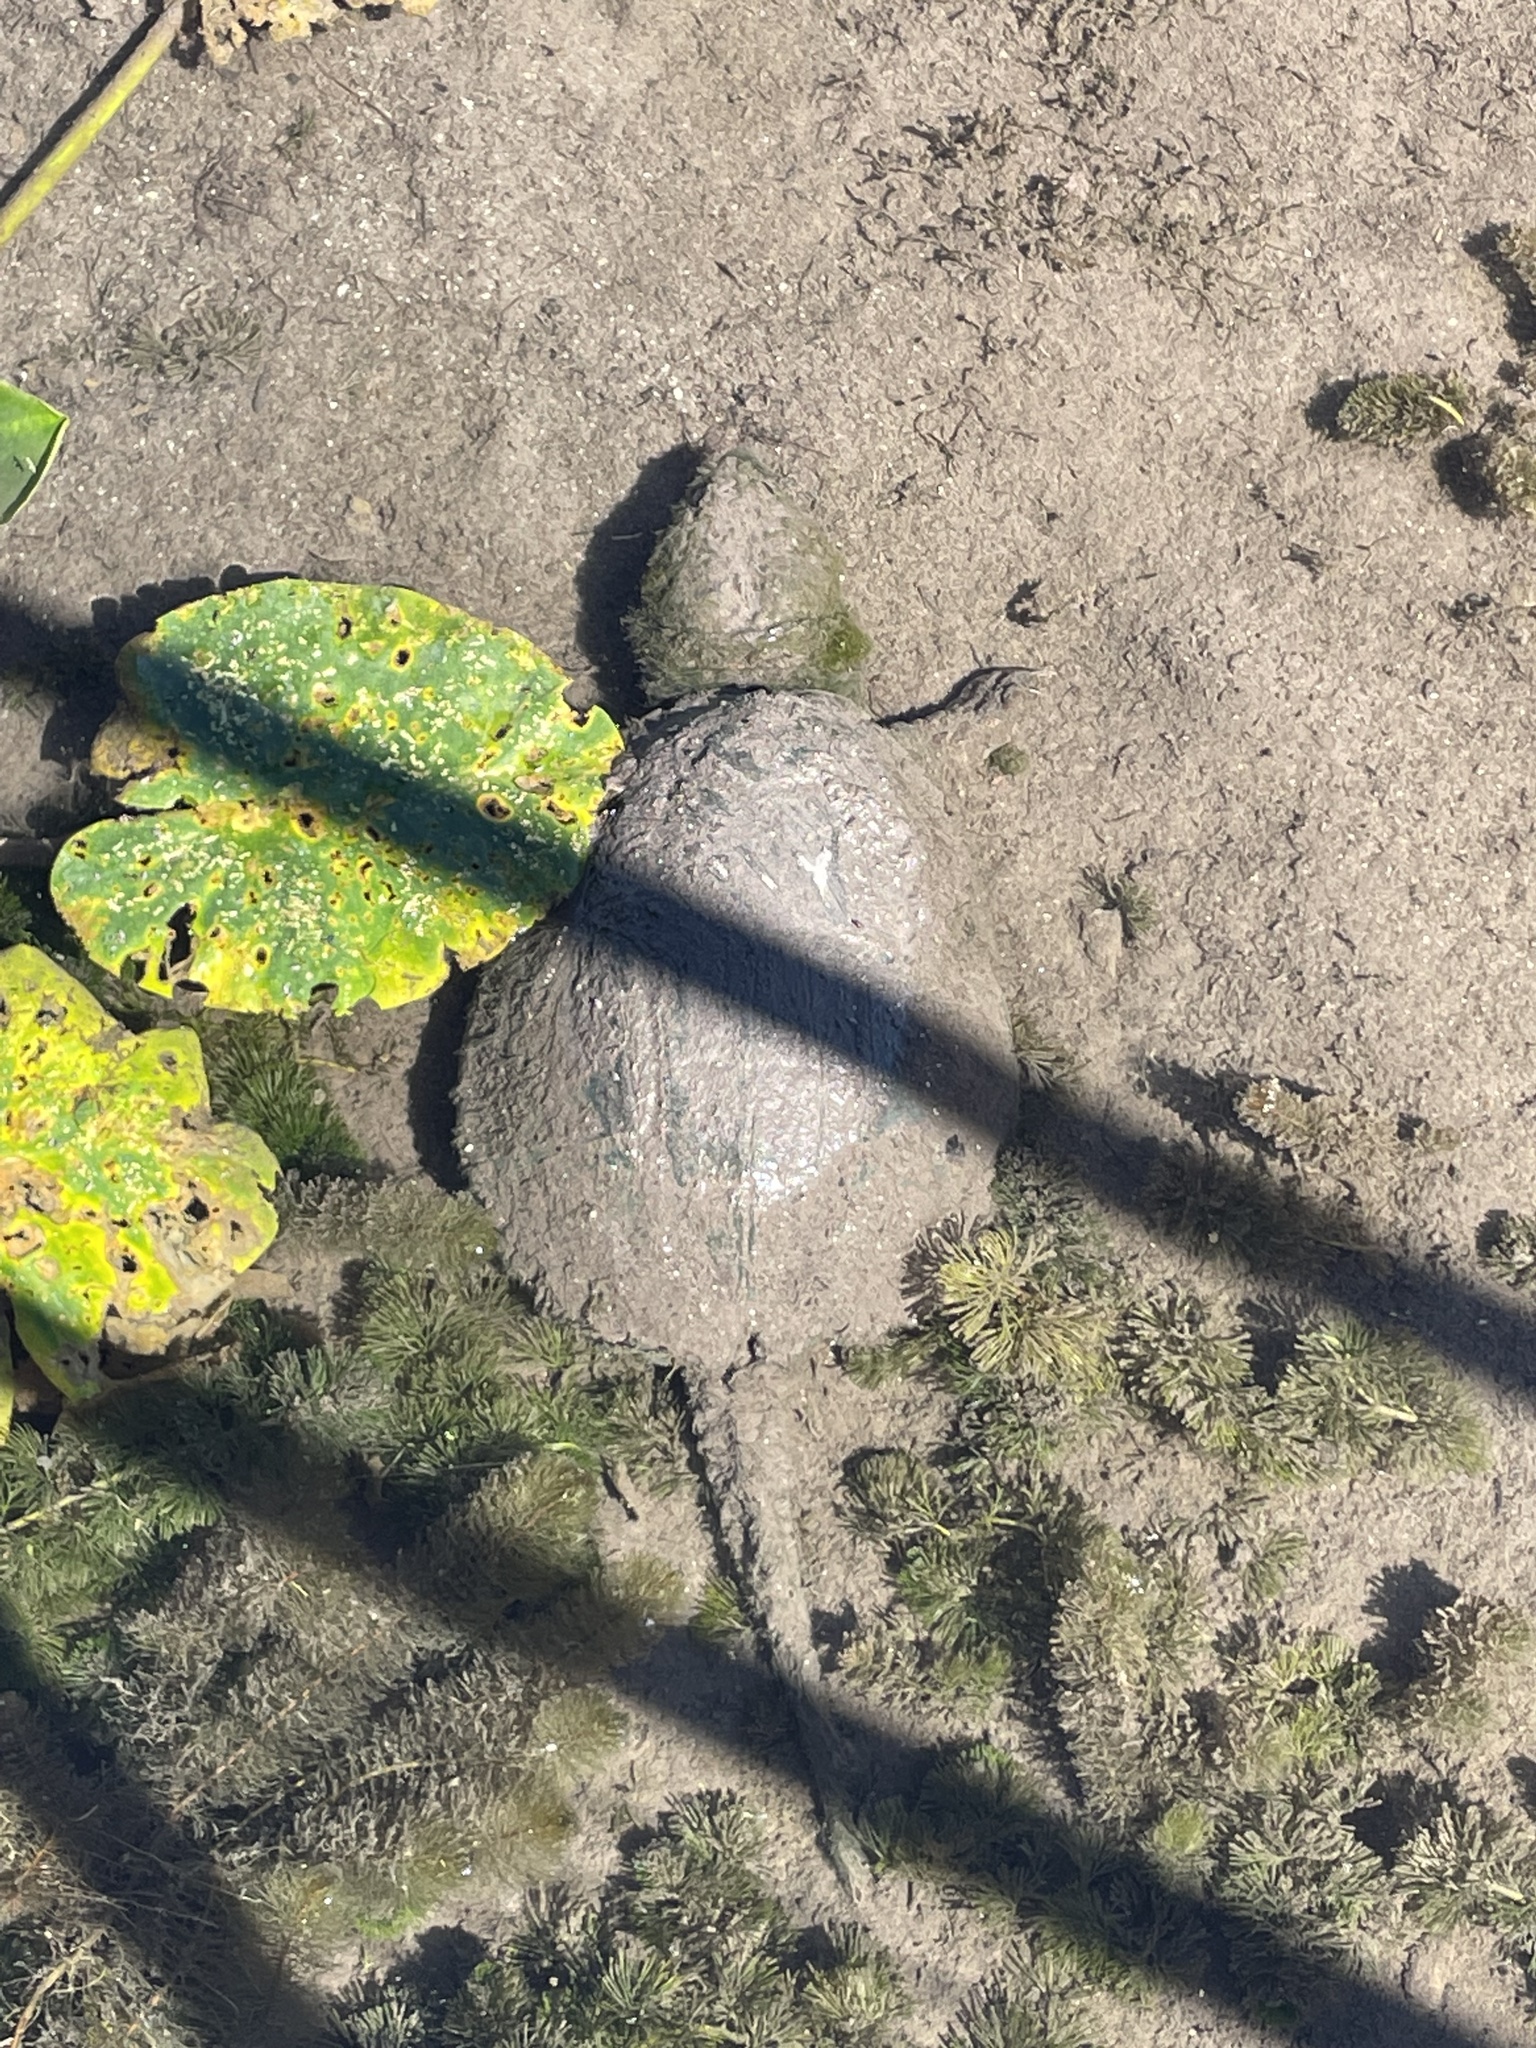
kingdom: Animalia
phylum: Chordata
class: Testudines
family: Chelydridae
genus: Chelydra
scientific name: Chelydra serpentina
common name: Common snapping turtle
